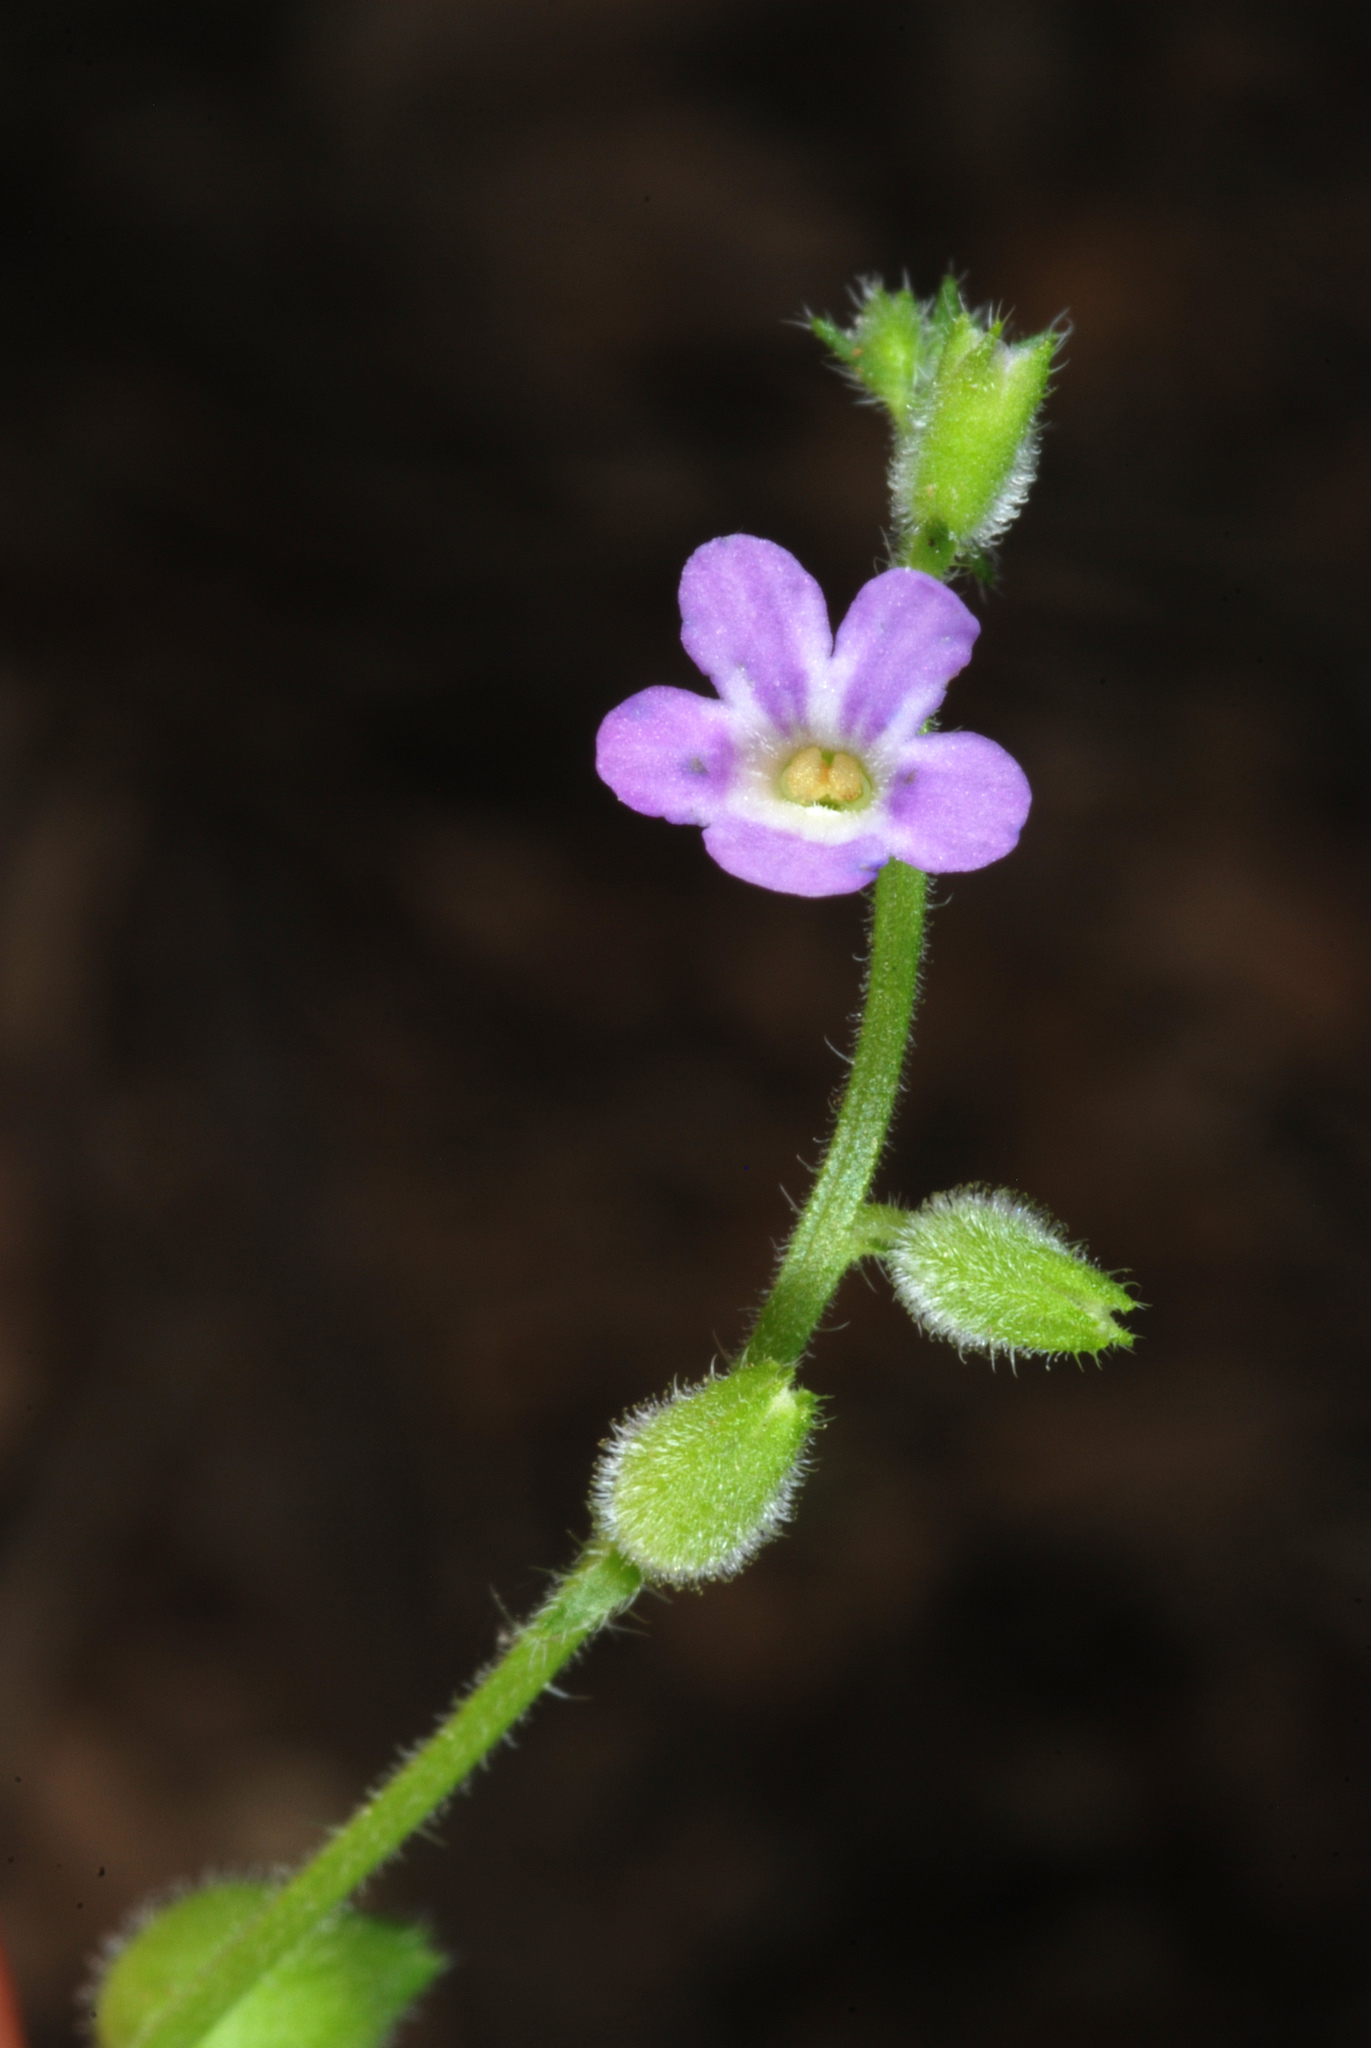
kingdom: Plantae
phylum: Tracheophyta
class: Magnoliopsida
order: Lamiales
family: Verbenaceae
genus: Priva
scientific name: Priva lappulacea
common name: Fasten-'pon-coat
